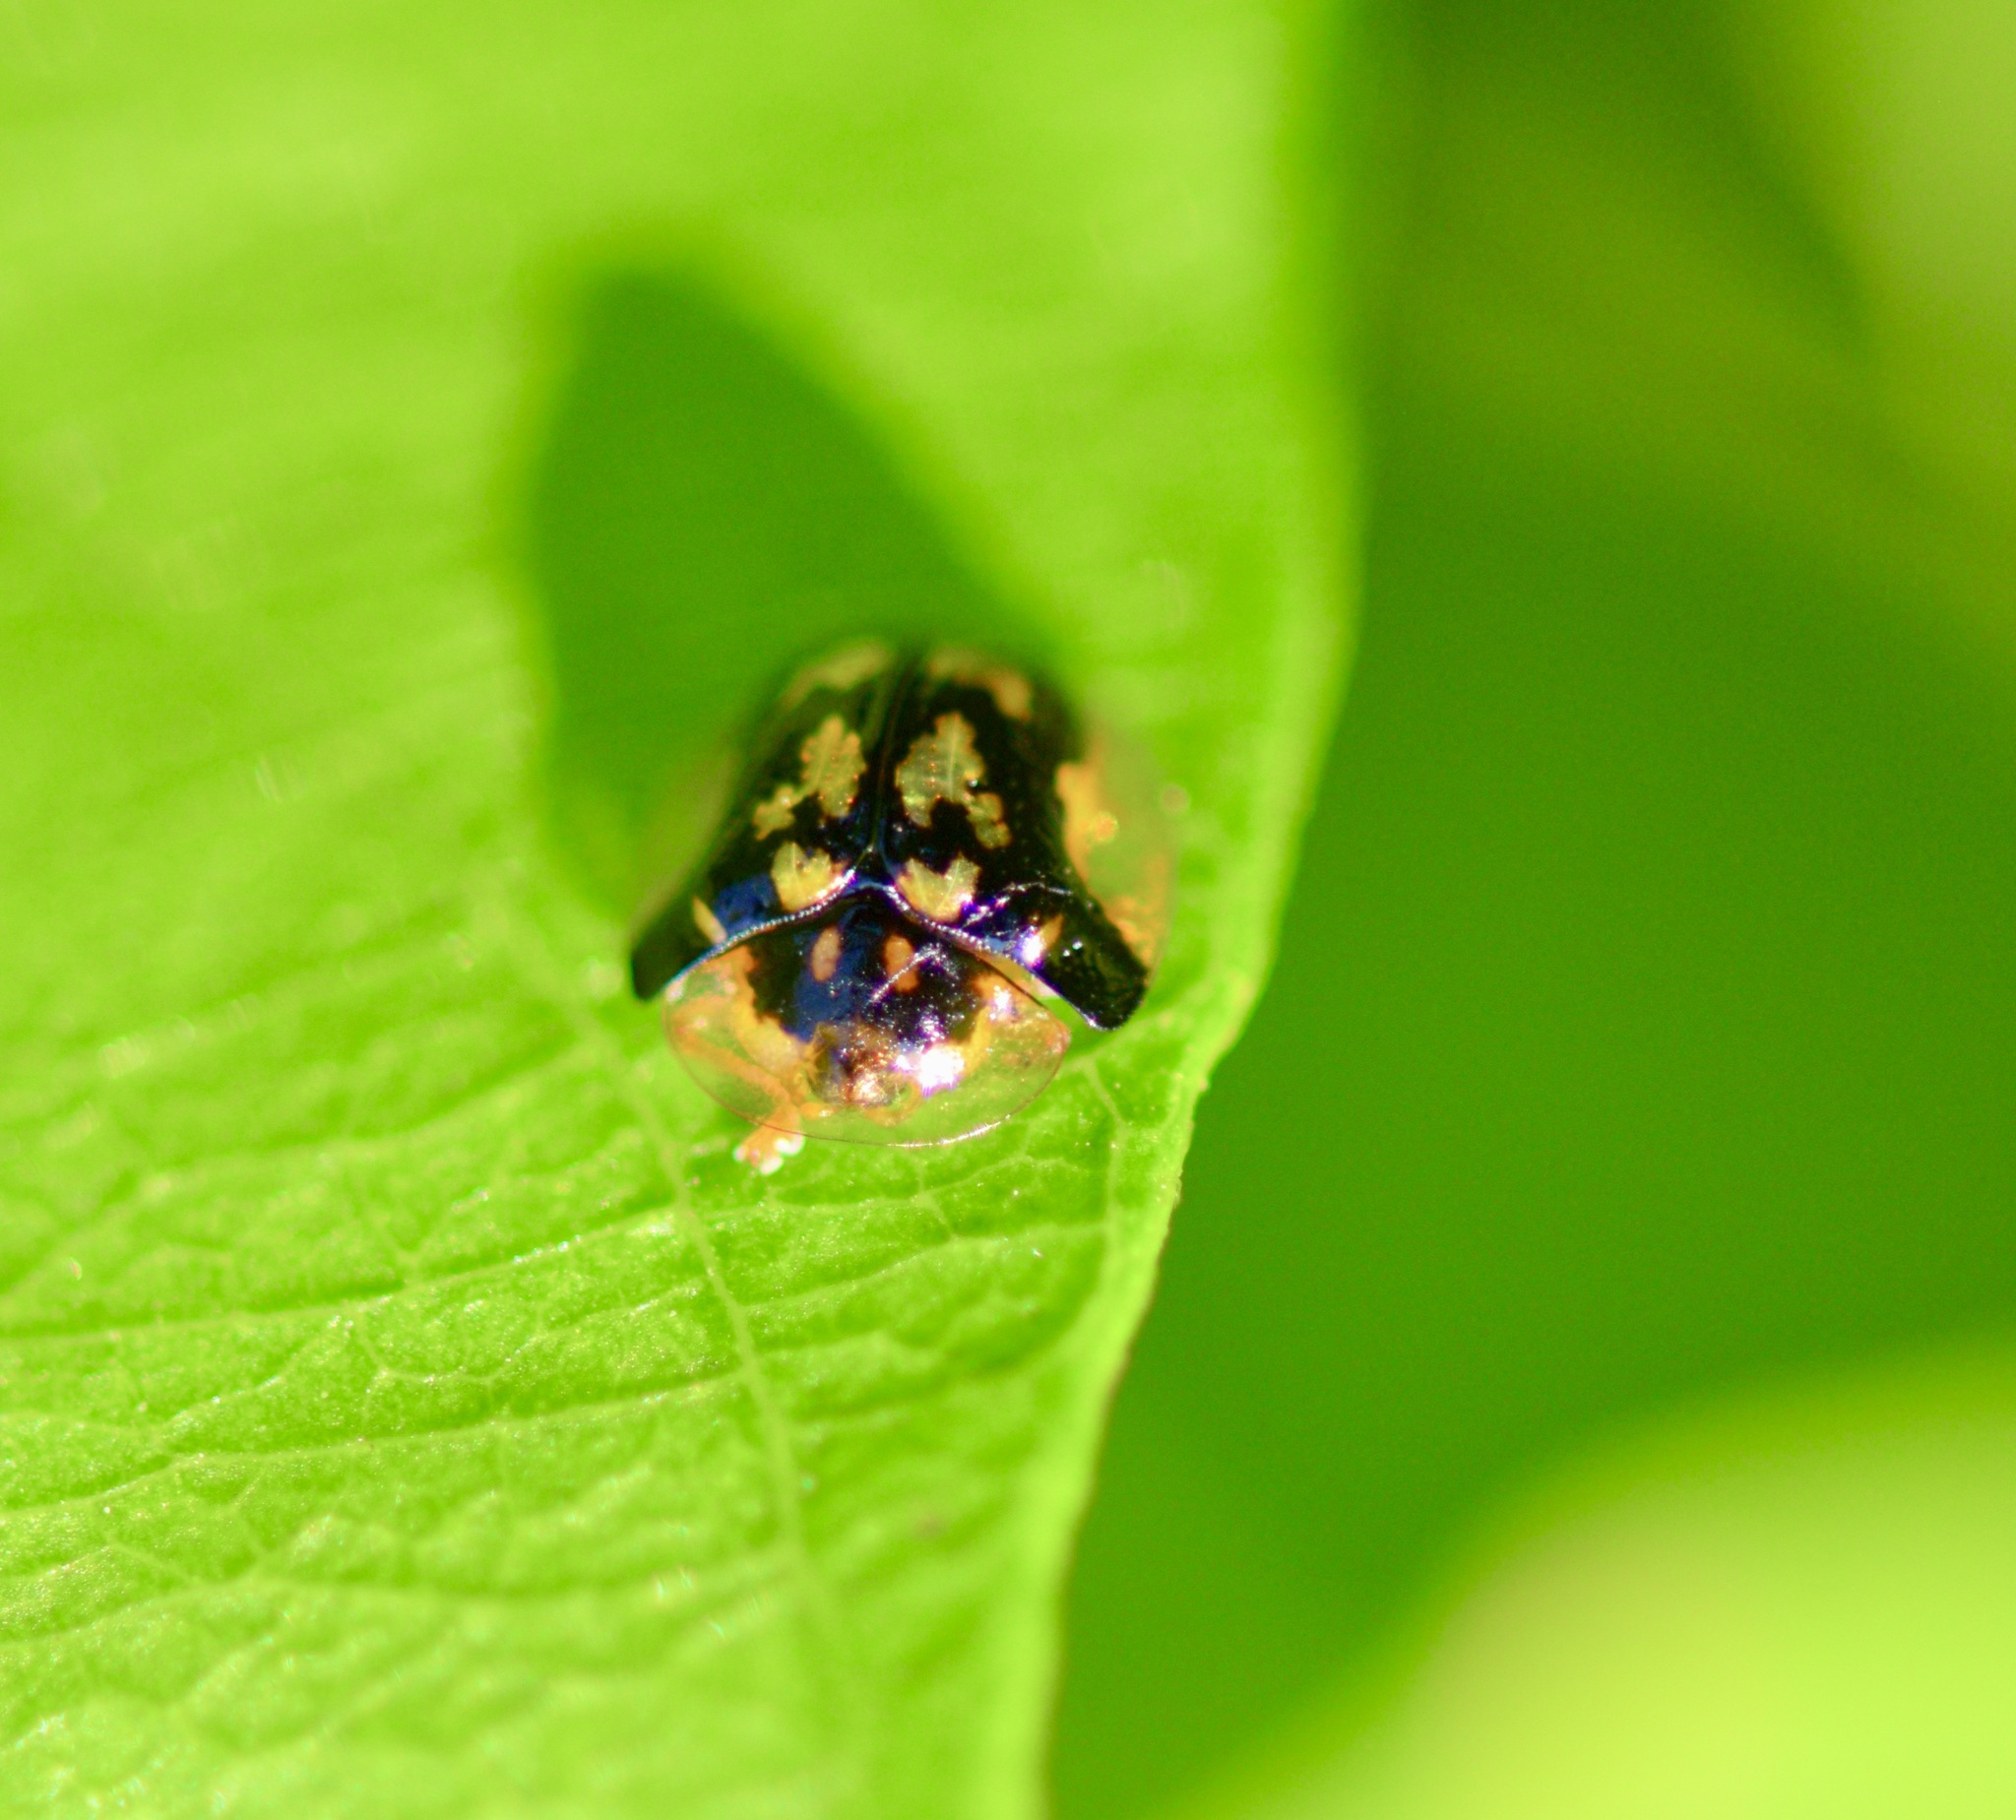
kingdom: Animalia
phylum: Arthropoda
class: Insecta
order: Coleoptera
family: Chrysomelidae
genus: Deloyala
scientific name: Deloyala guttata
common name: Mottled tortoise beetle
